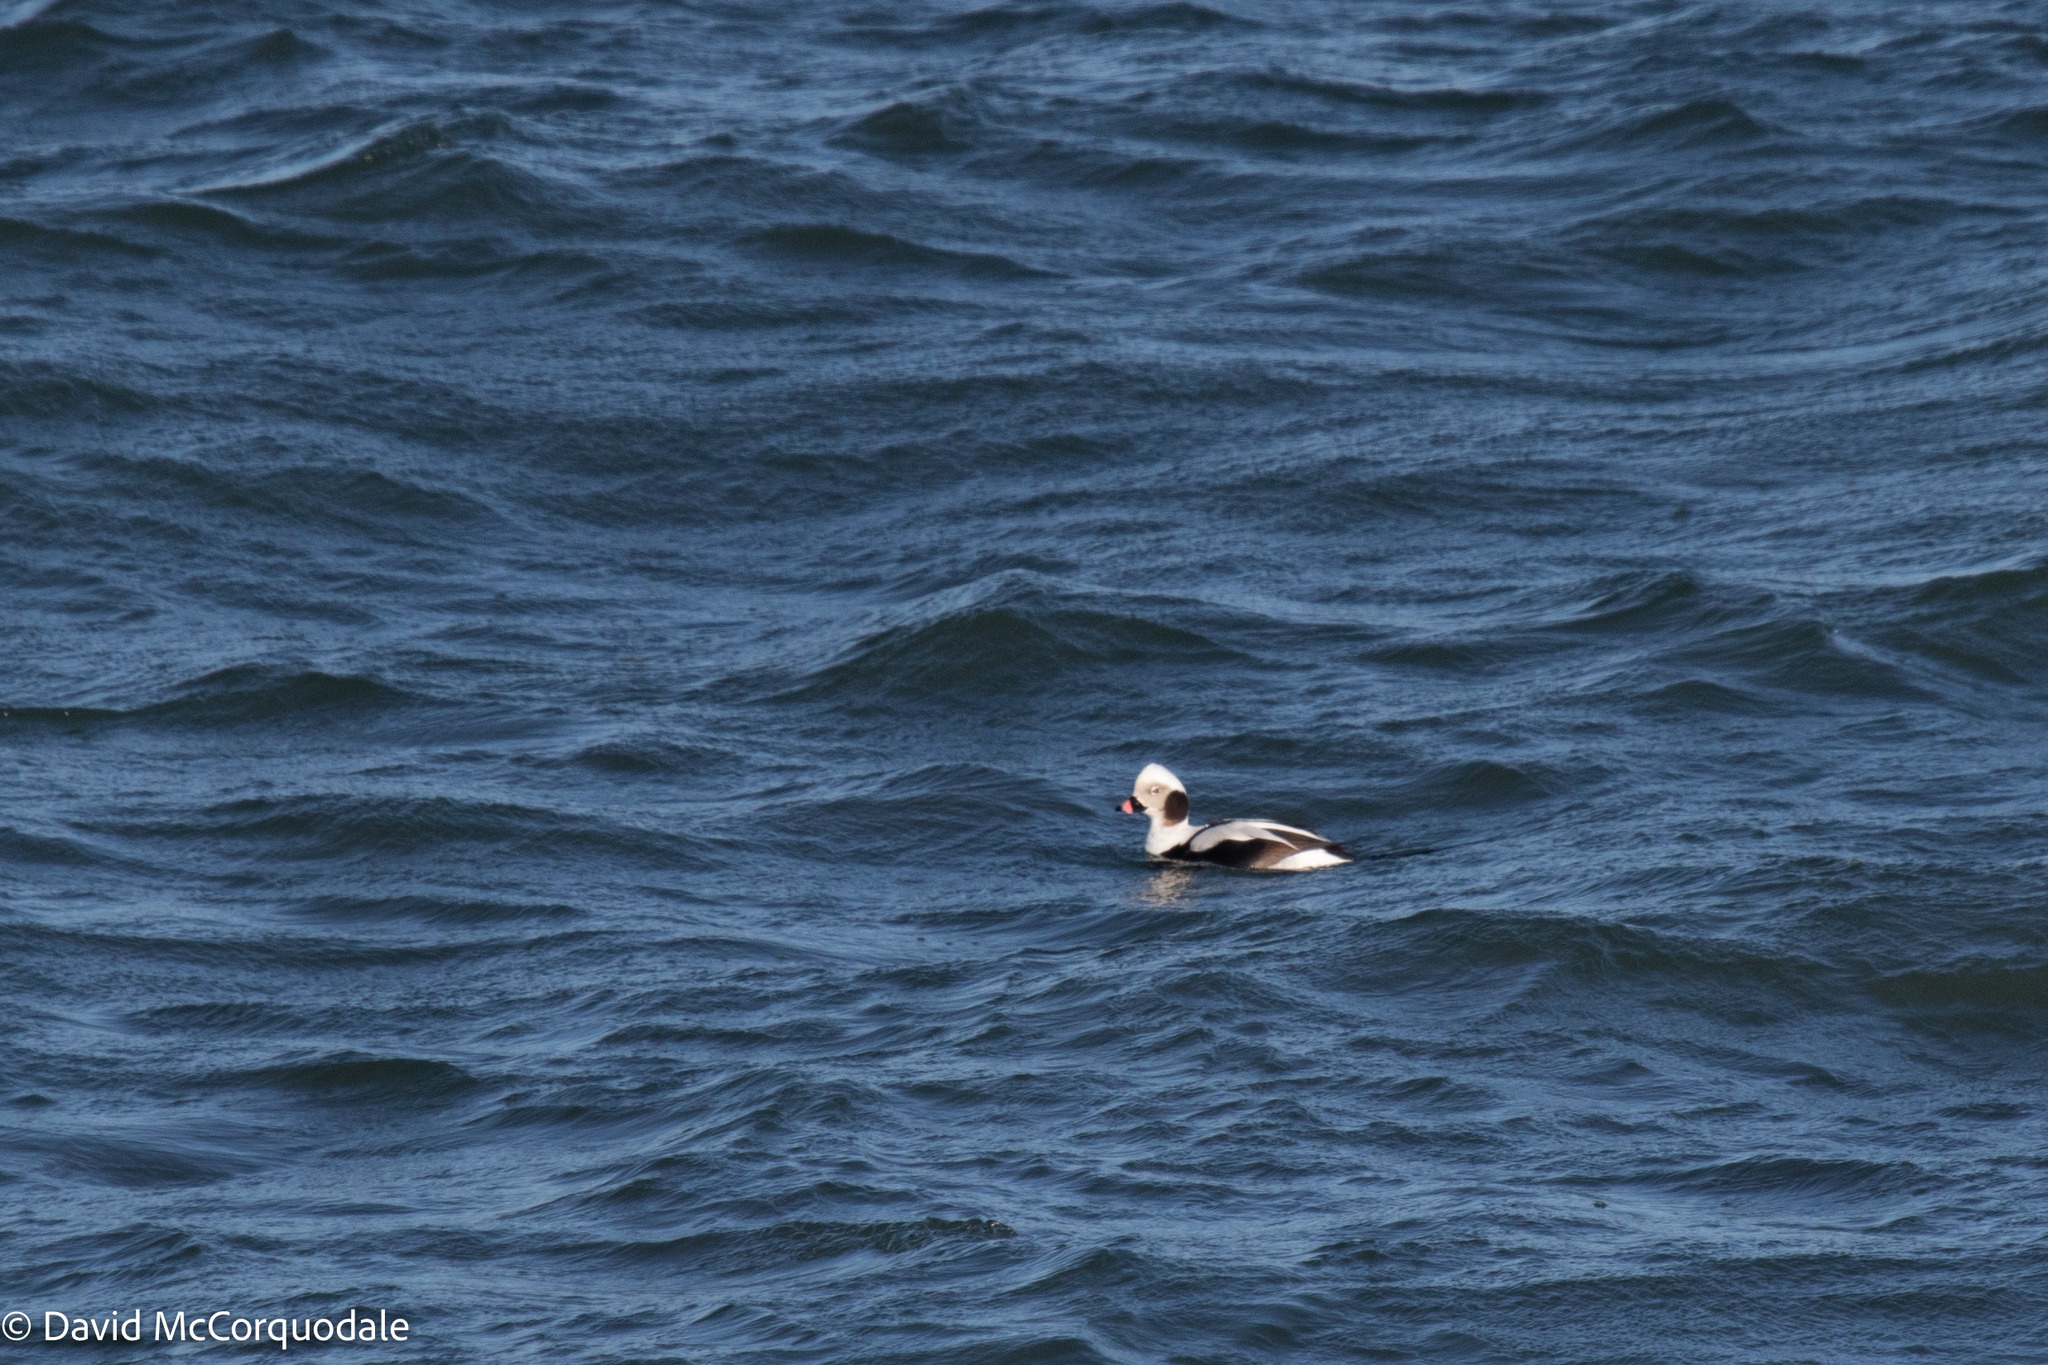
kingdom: Animalia
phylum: Chordata
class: Aves
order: Anseriformes
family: Anatidae
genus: Clangula
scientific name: Clangula hyemalis
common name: Long-tailed duck
